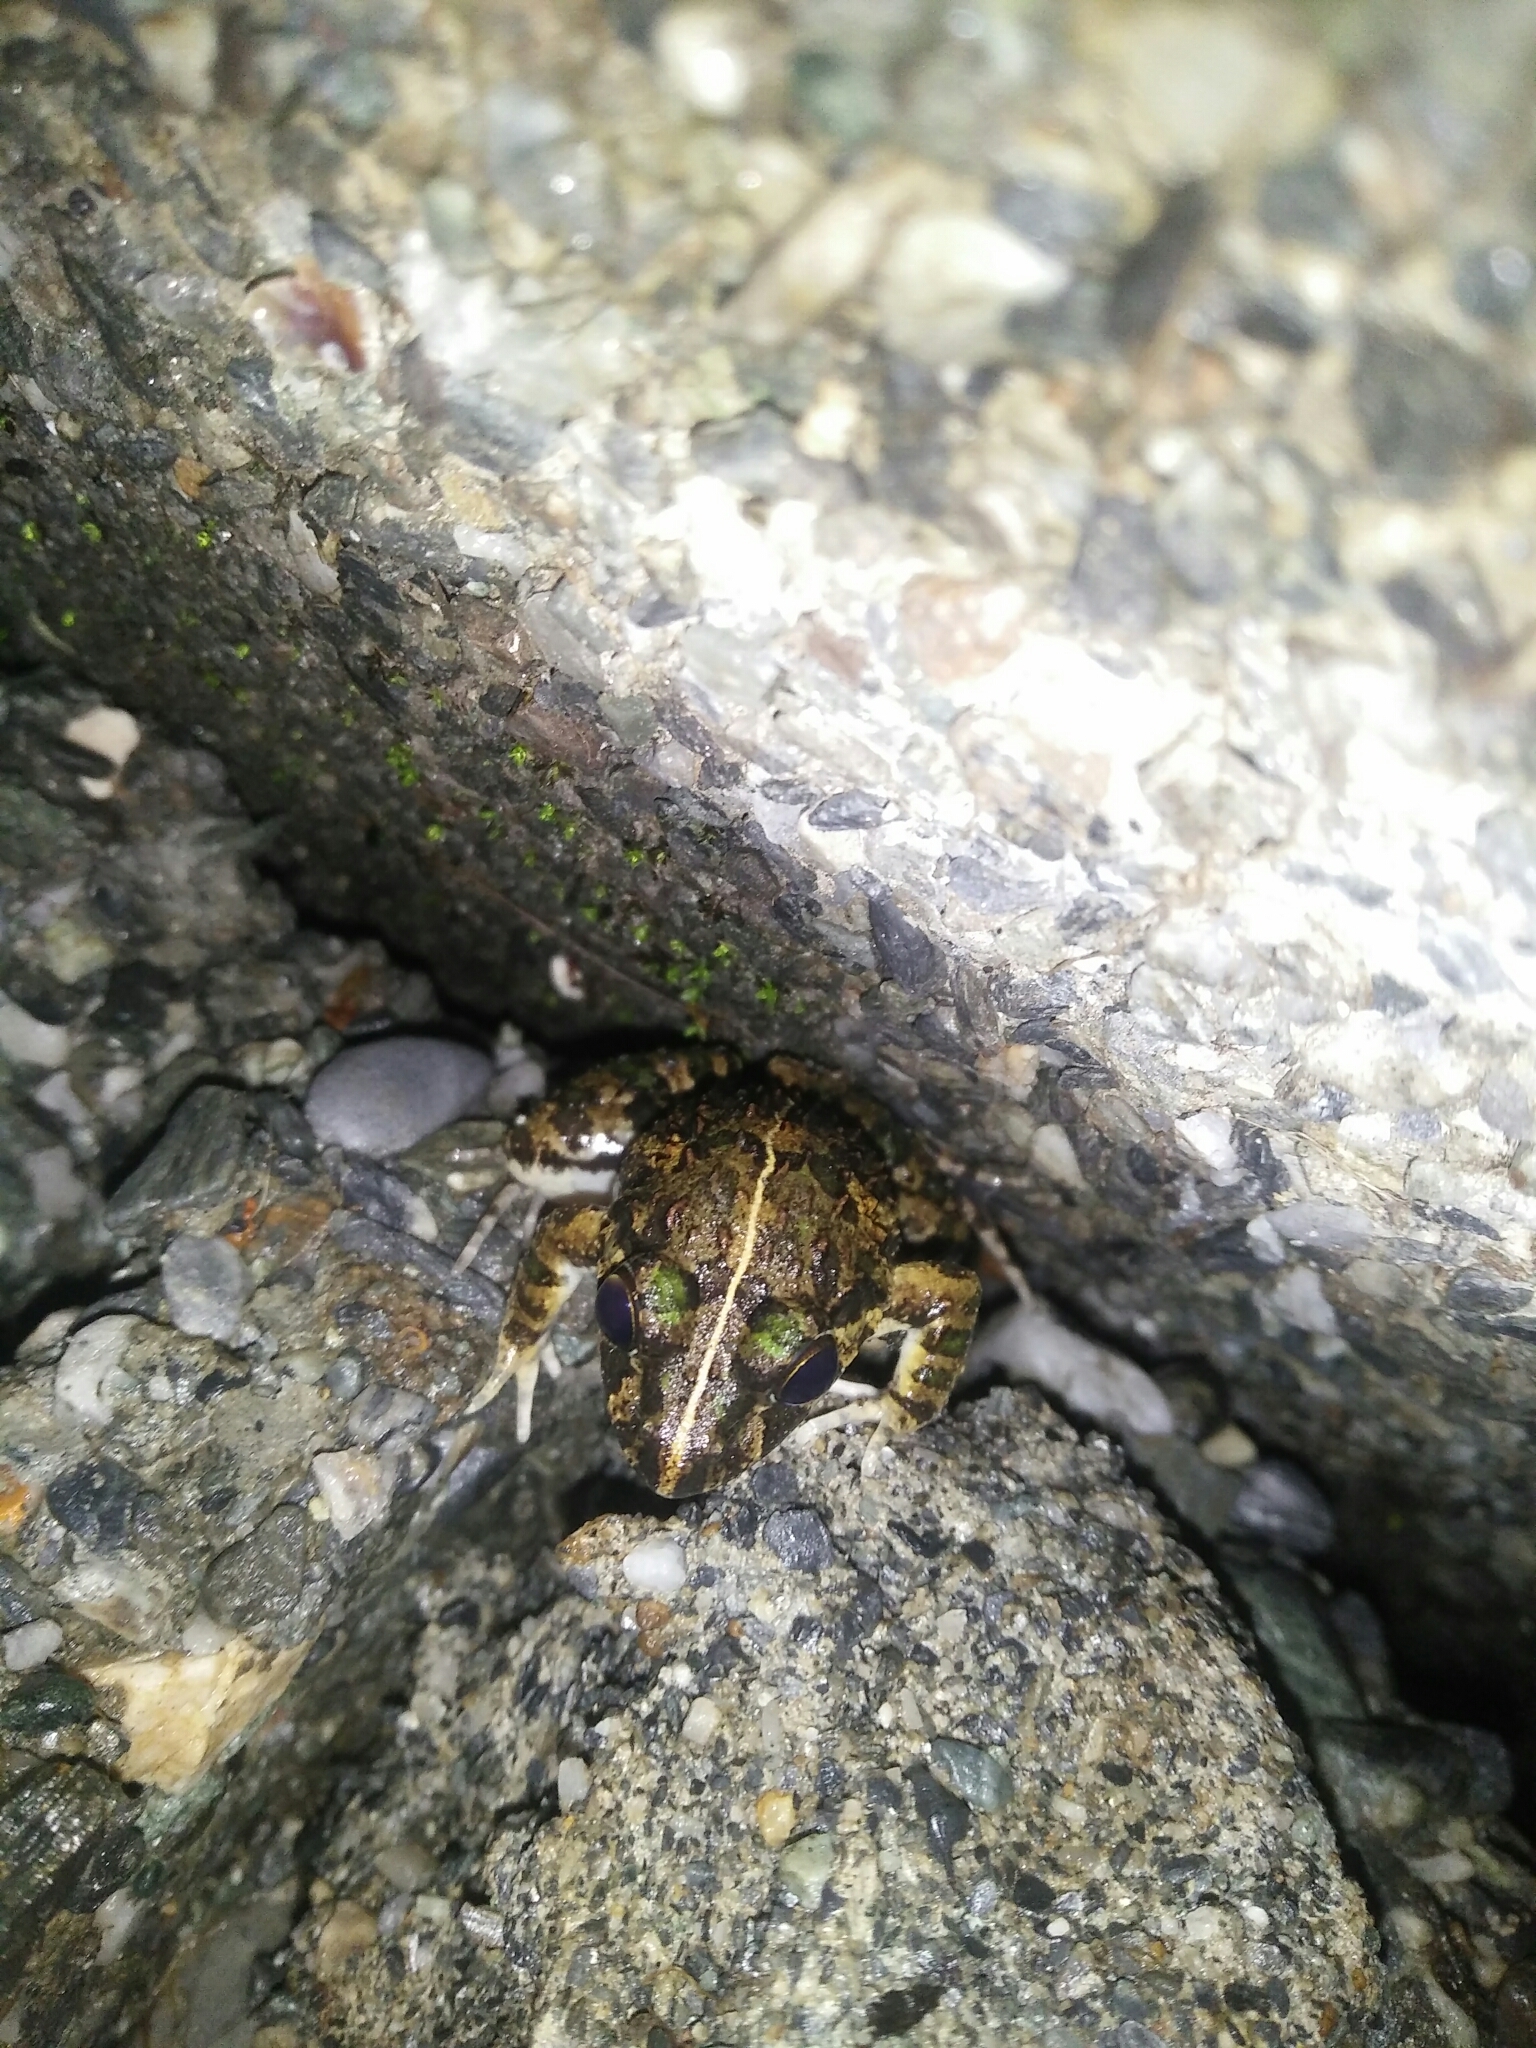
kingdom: Animalia
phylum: Chordata
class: Amphibia
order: Anura
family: Dicroglossidae
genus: Fejervarya
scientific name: Fejervarya limnocharis
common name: Asian grass frog/common pond frog/field frog/grass frog/indian rice frog
